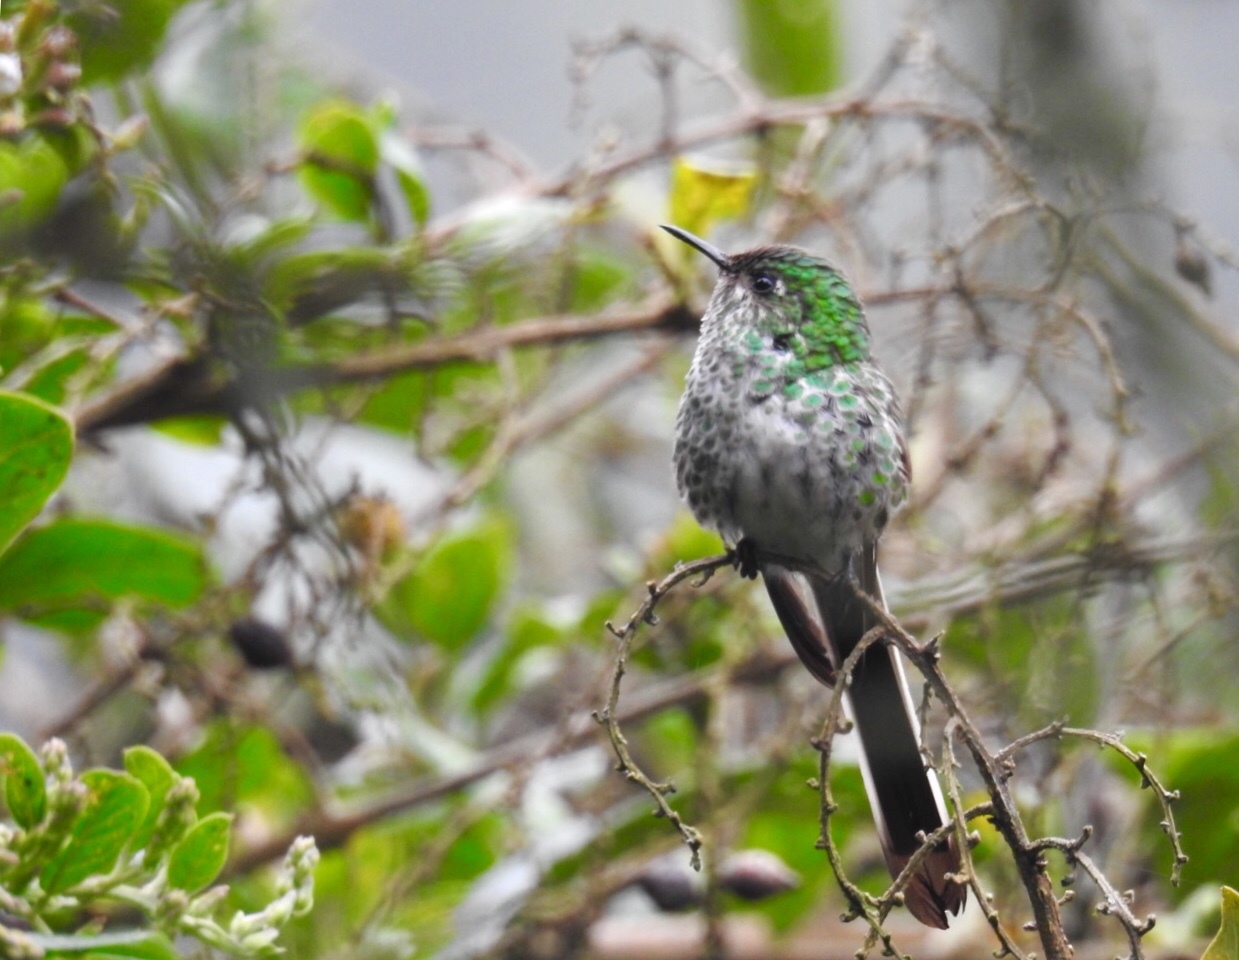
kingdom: Animalia
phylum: Chordata
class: Aves
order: Apodiformes
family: Trochilidae
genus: Lesbia
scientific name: Lesbia nuna
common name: Green-tailed trainbearer
